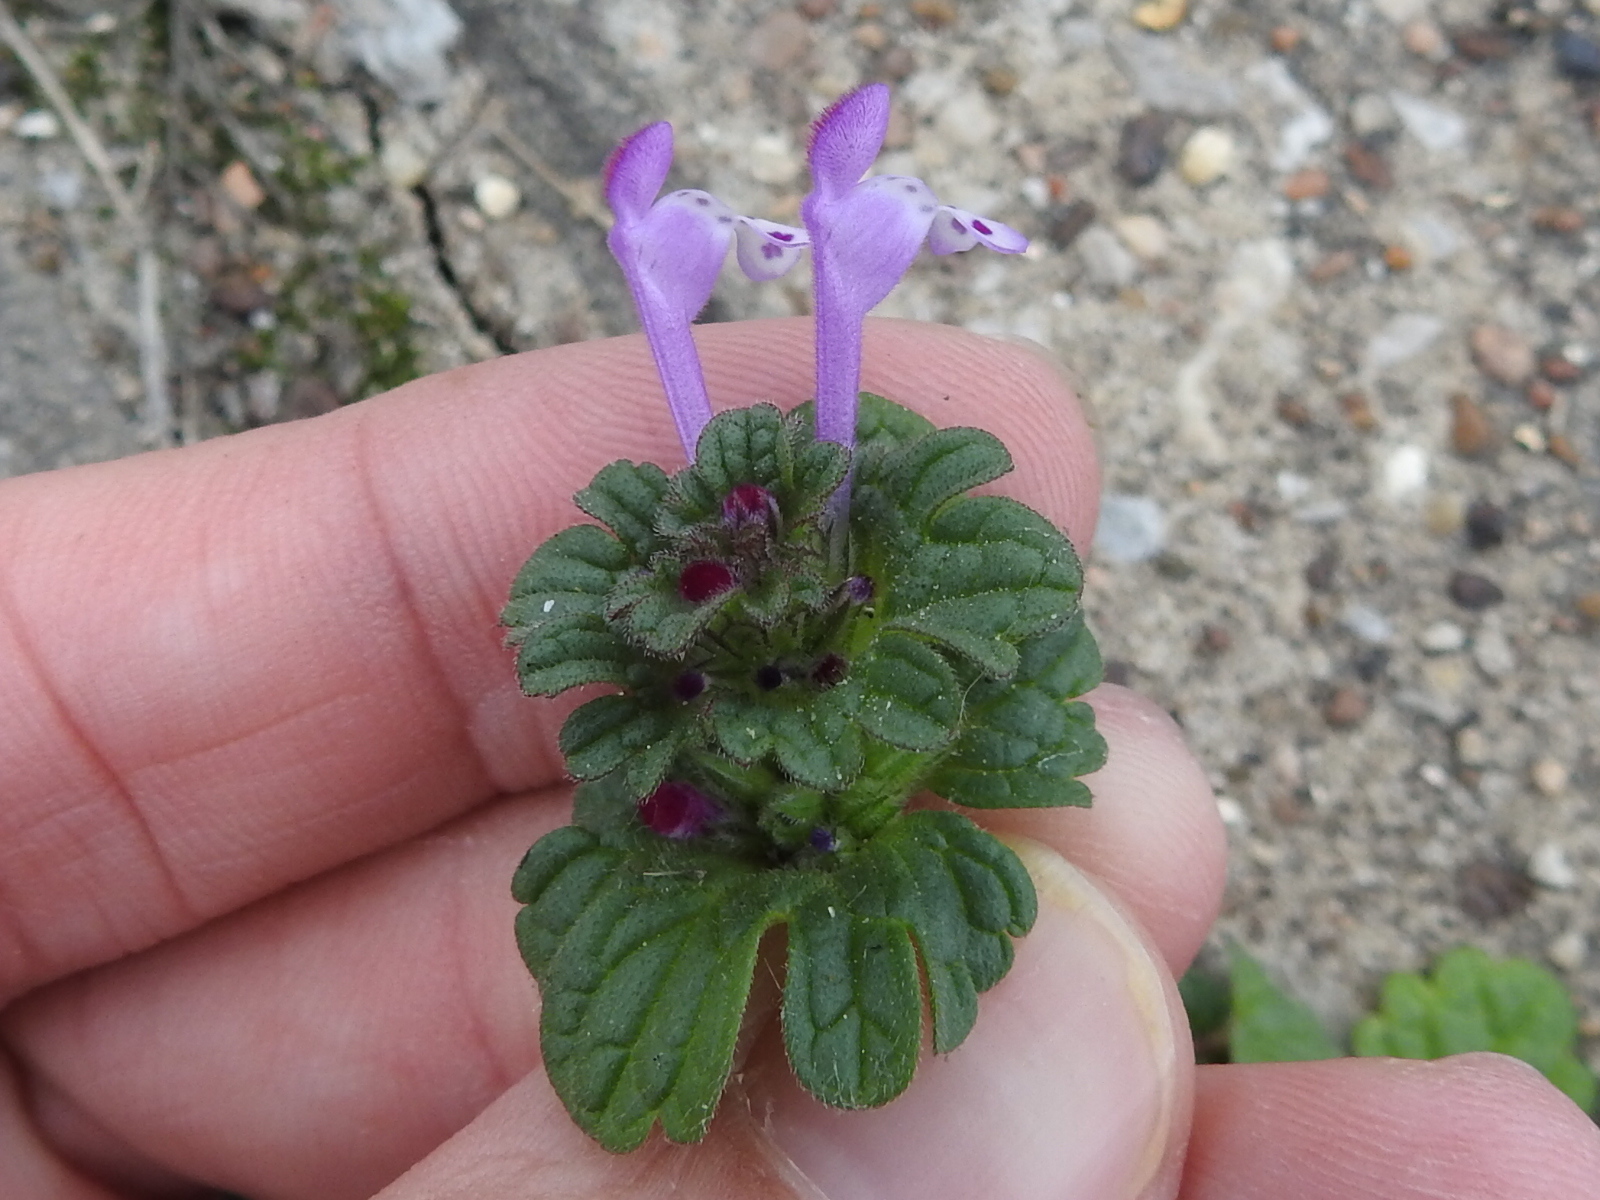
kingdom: Plantae
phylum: Tracheophyta
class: Magnoliopsida
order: Lamiales
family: Lamiaceae
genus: Lamium
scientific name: Lamium amplexicaule
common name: Henbit dead-nettle
